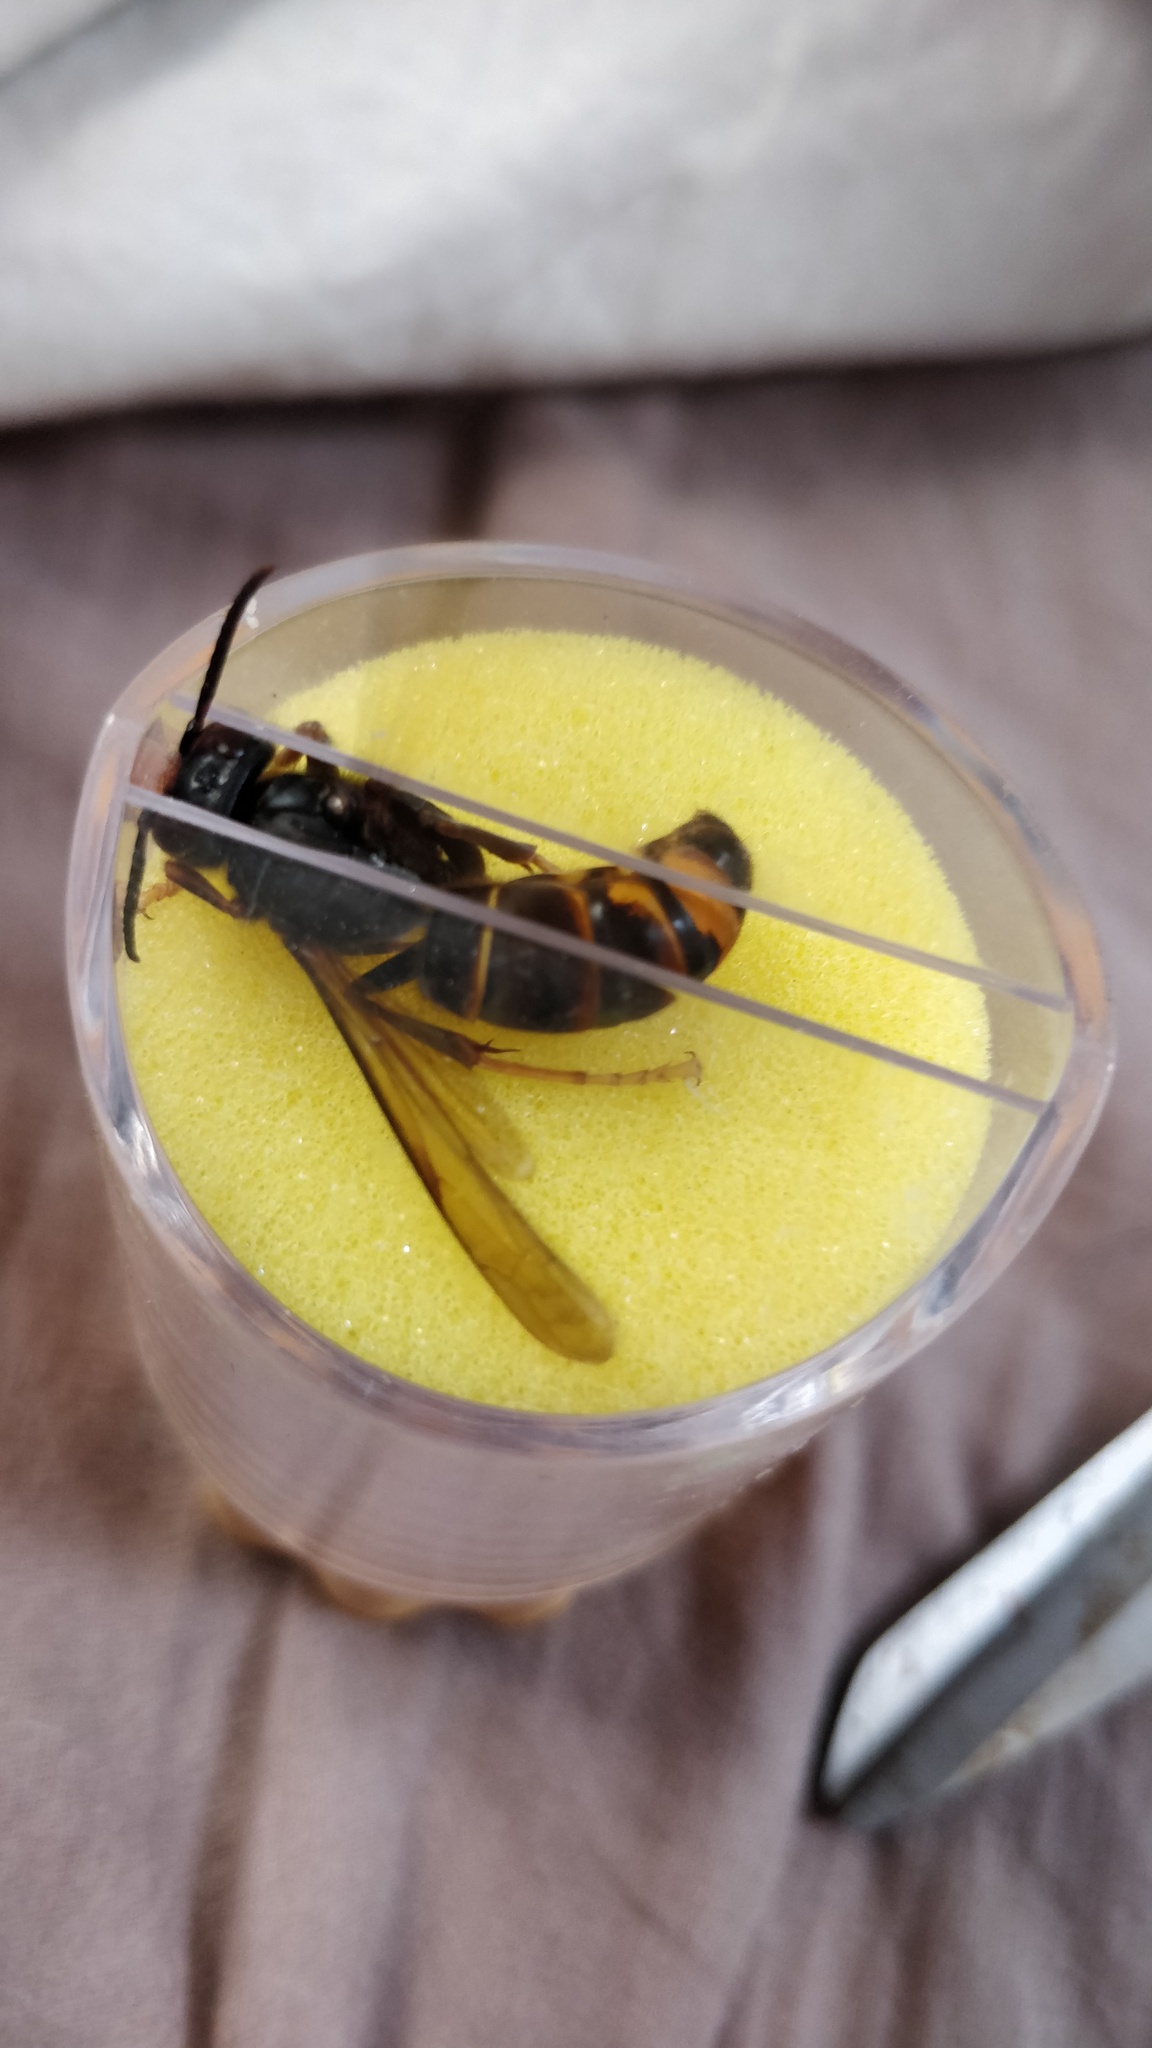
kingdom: Animalia
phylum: Arthropoda
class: Insecta
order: Hymenoptera
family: Vespidae
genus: Vespa
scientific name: Vespa velutina
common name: Asian hornet
